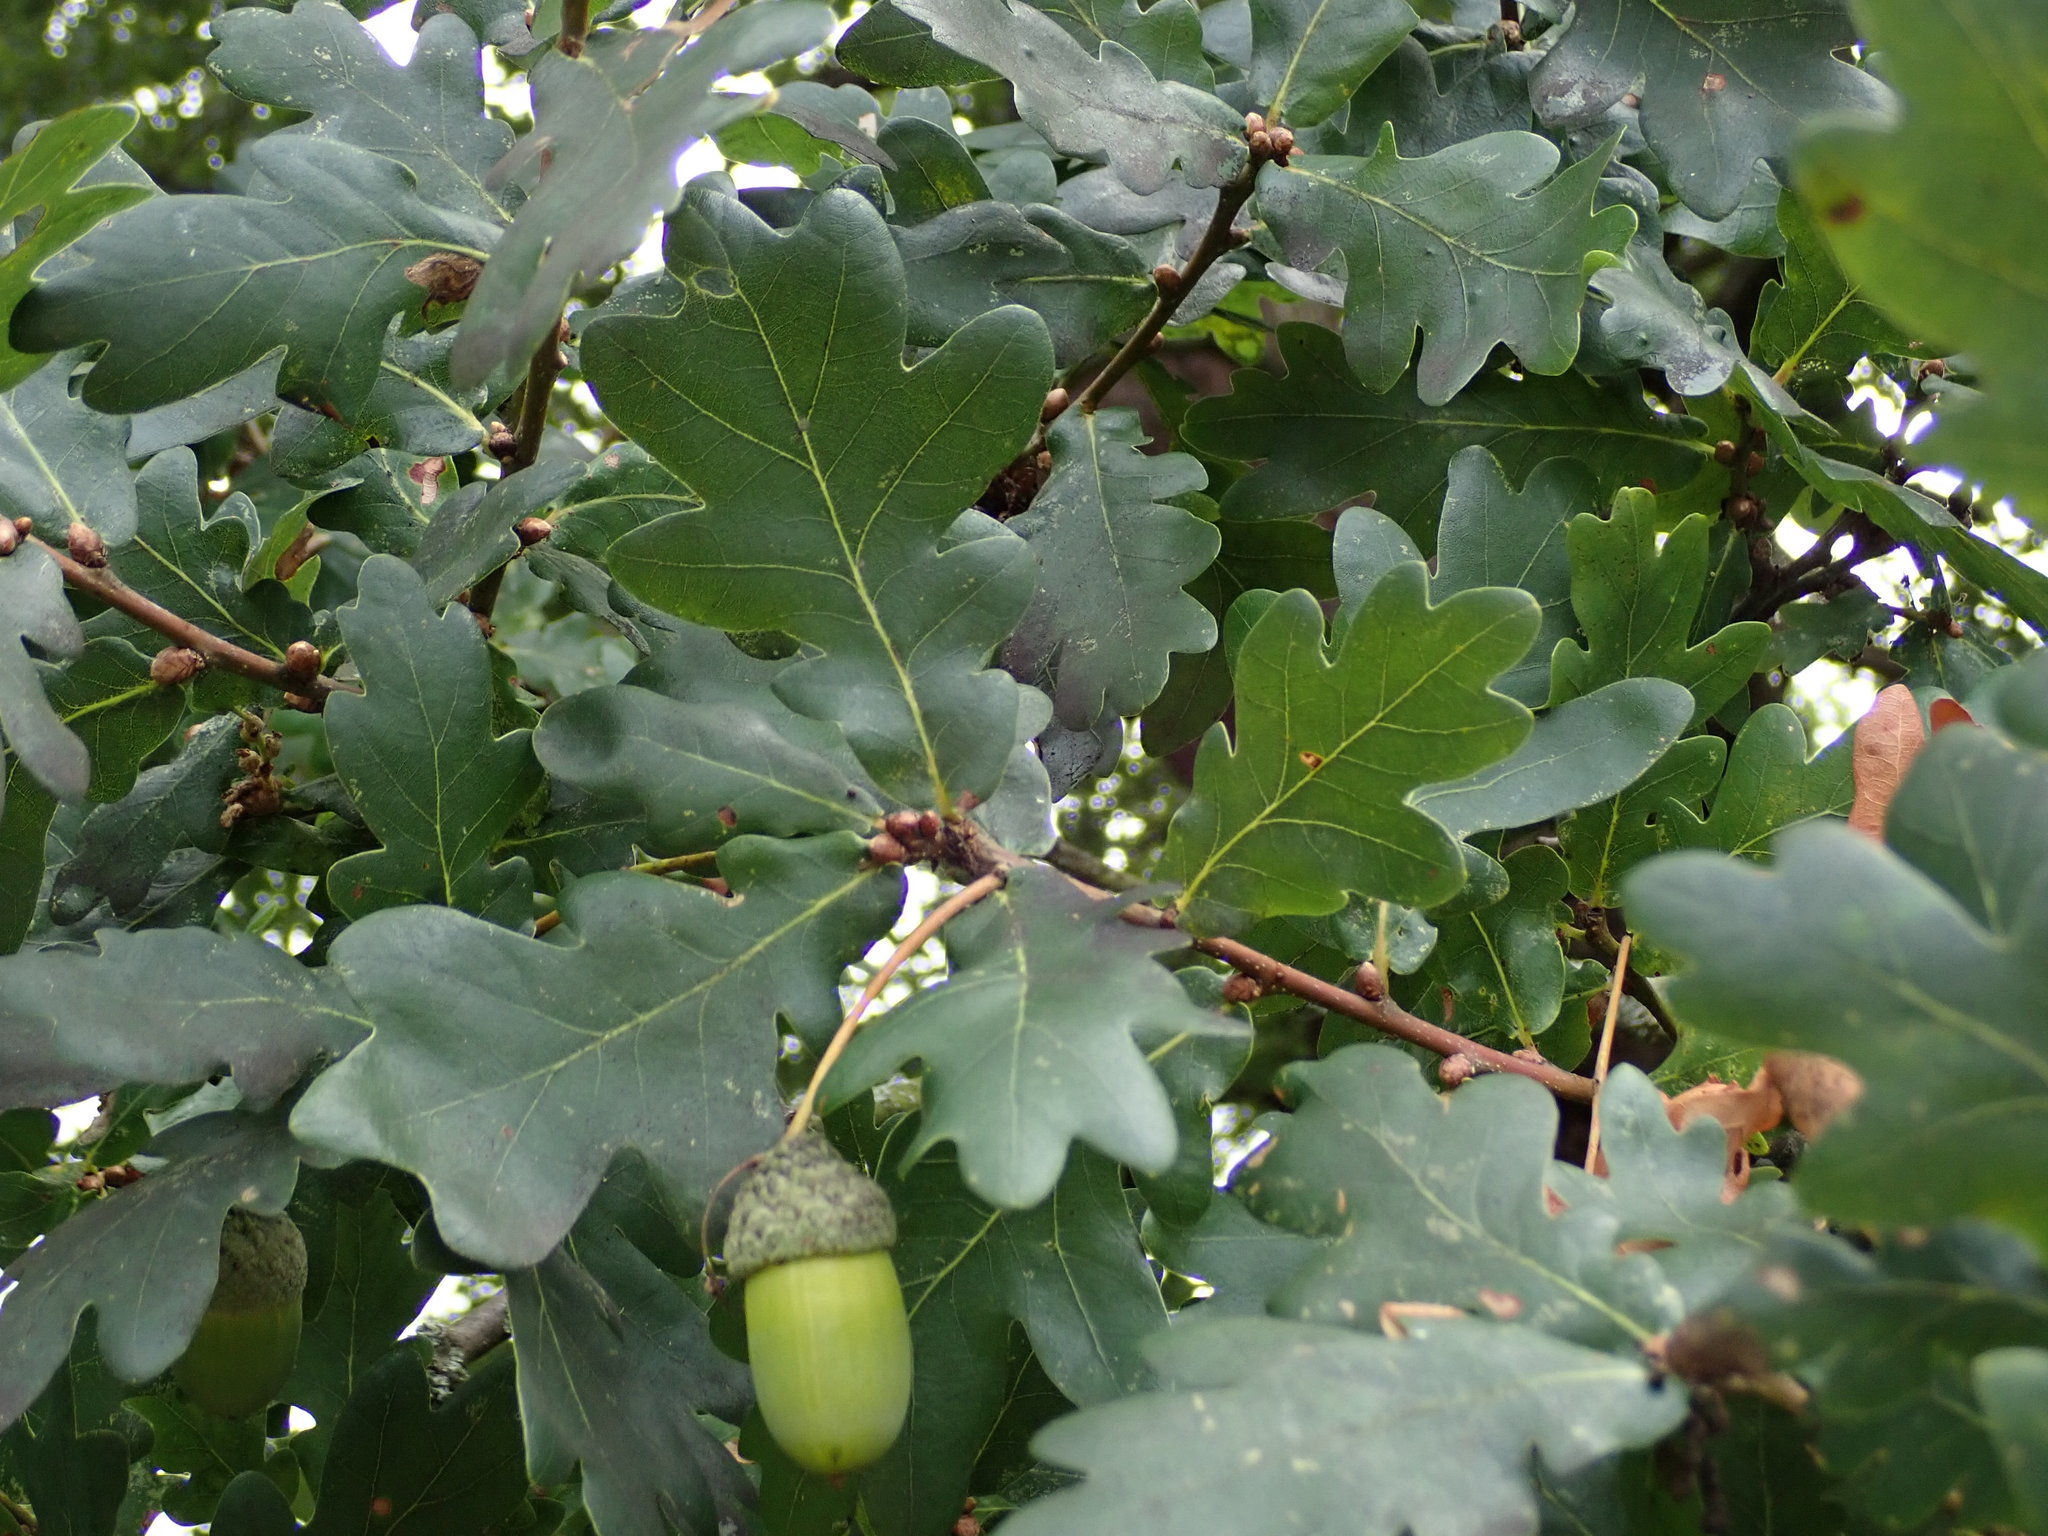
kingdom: Plantae
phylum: Tracheophyta
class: Magnoliopsida
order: Fagales
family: Fagaceae
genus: Quercus
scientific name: Quercus robur
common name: Pedunculate oak
